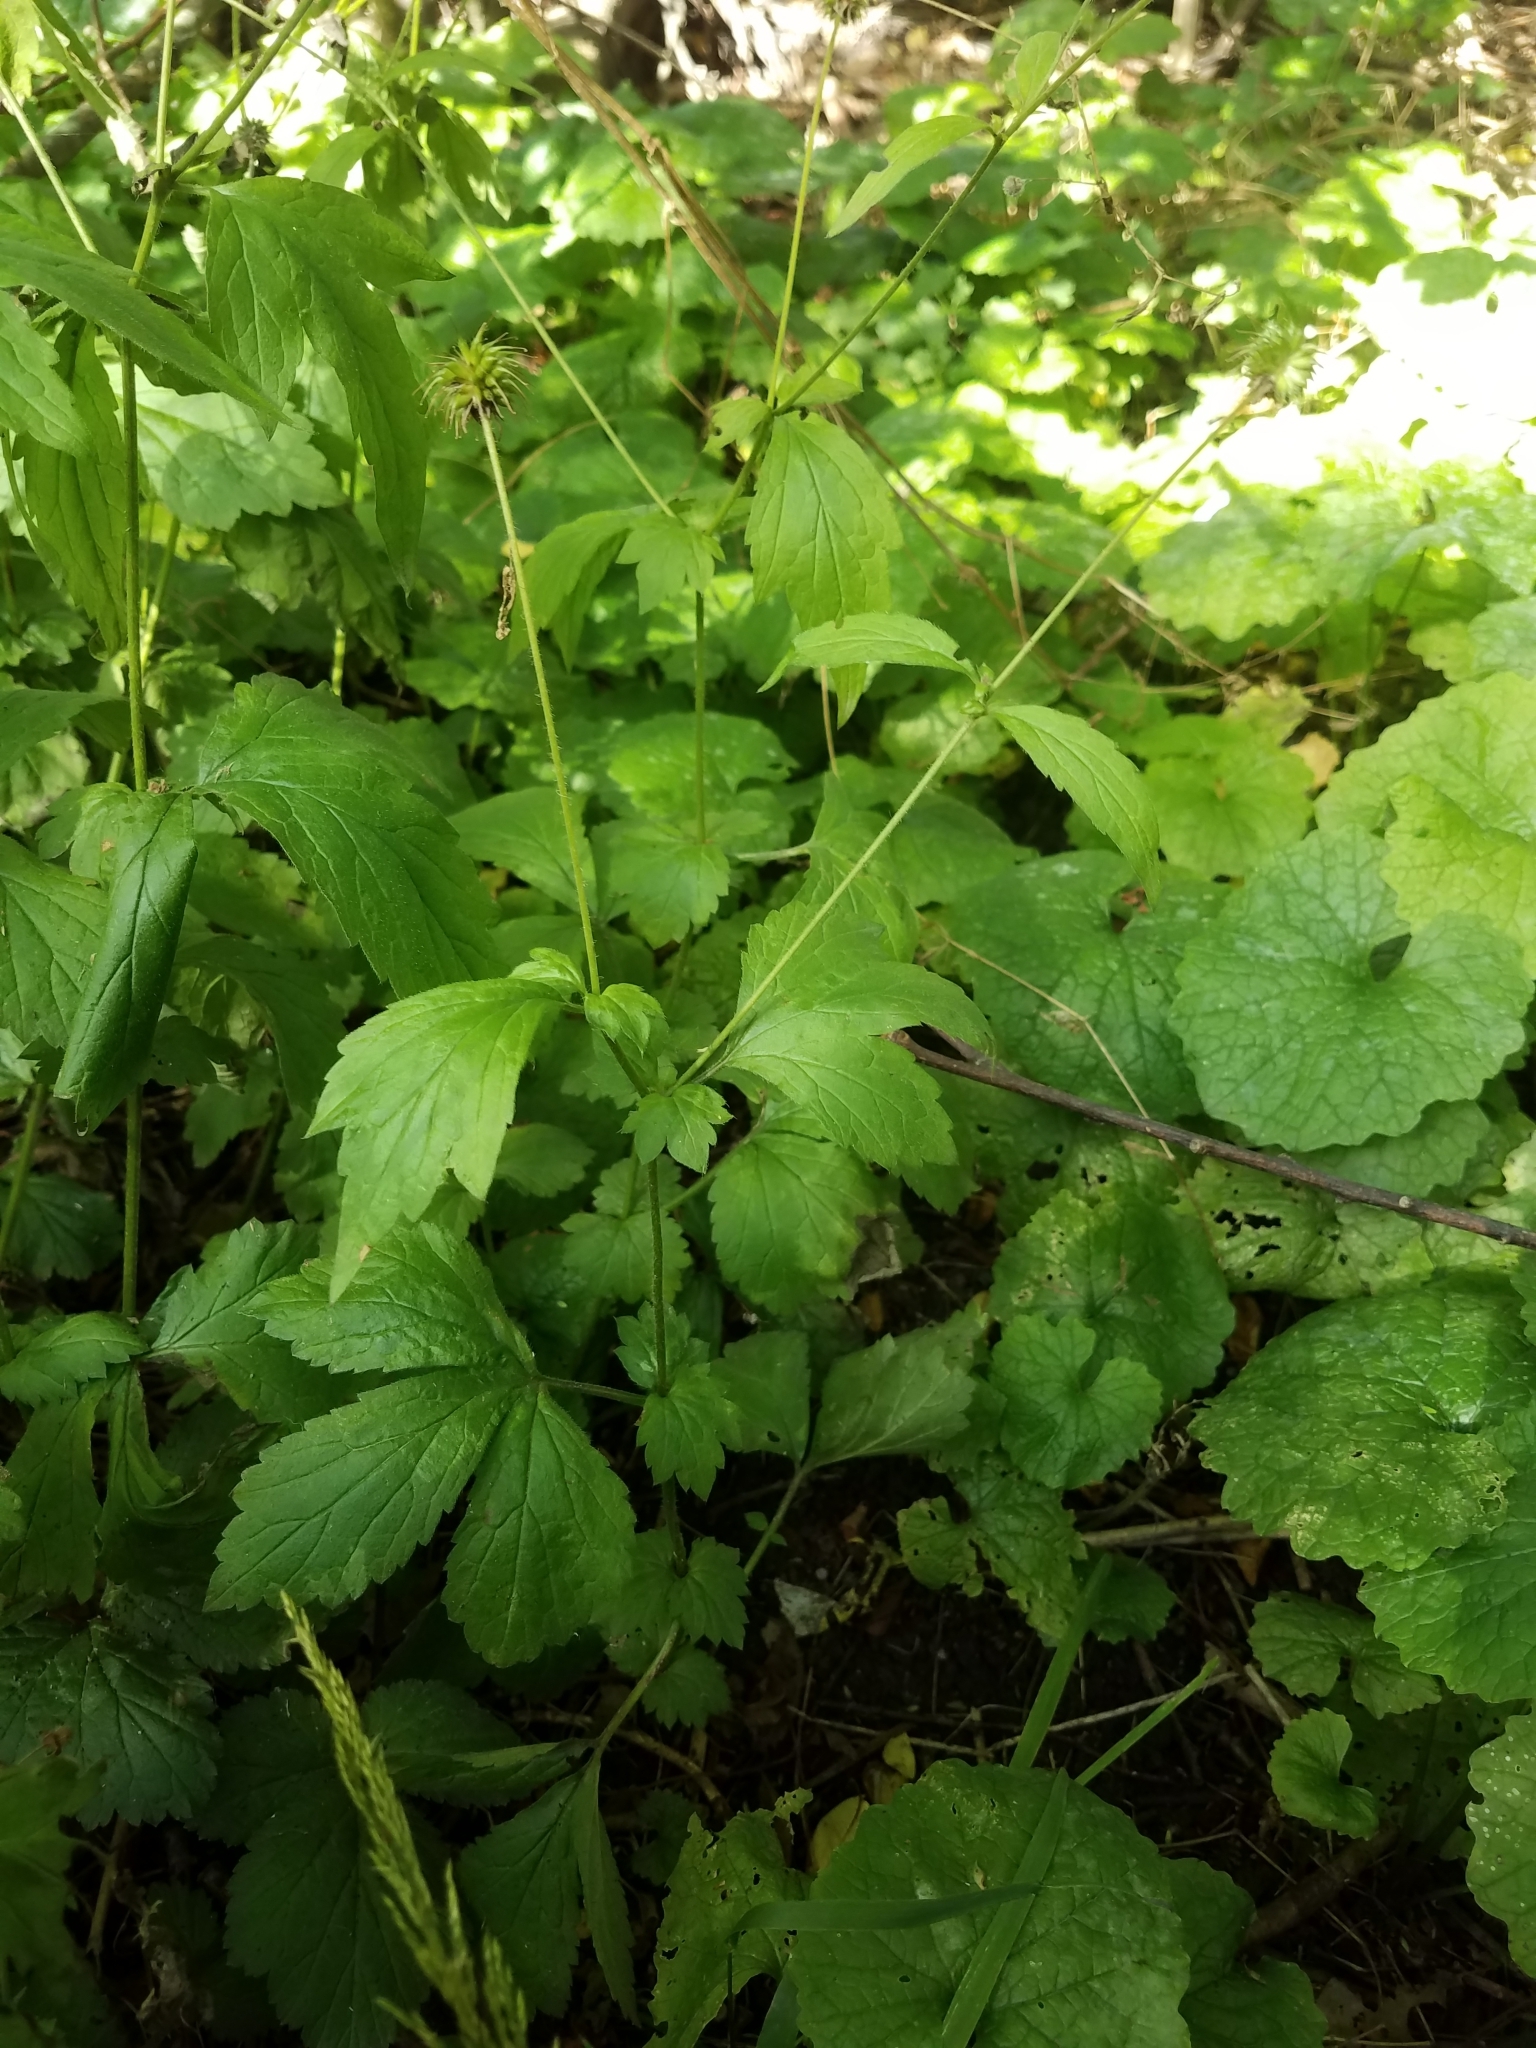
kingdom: Plantae
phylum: Tracheophyta
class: Magnoliopsida
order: Rosales
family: Rosaceae
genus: Geum
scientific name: Geum urbanum
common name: Wood avens
